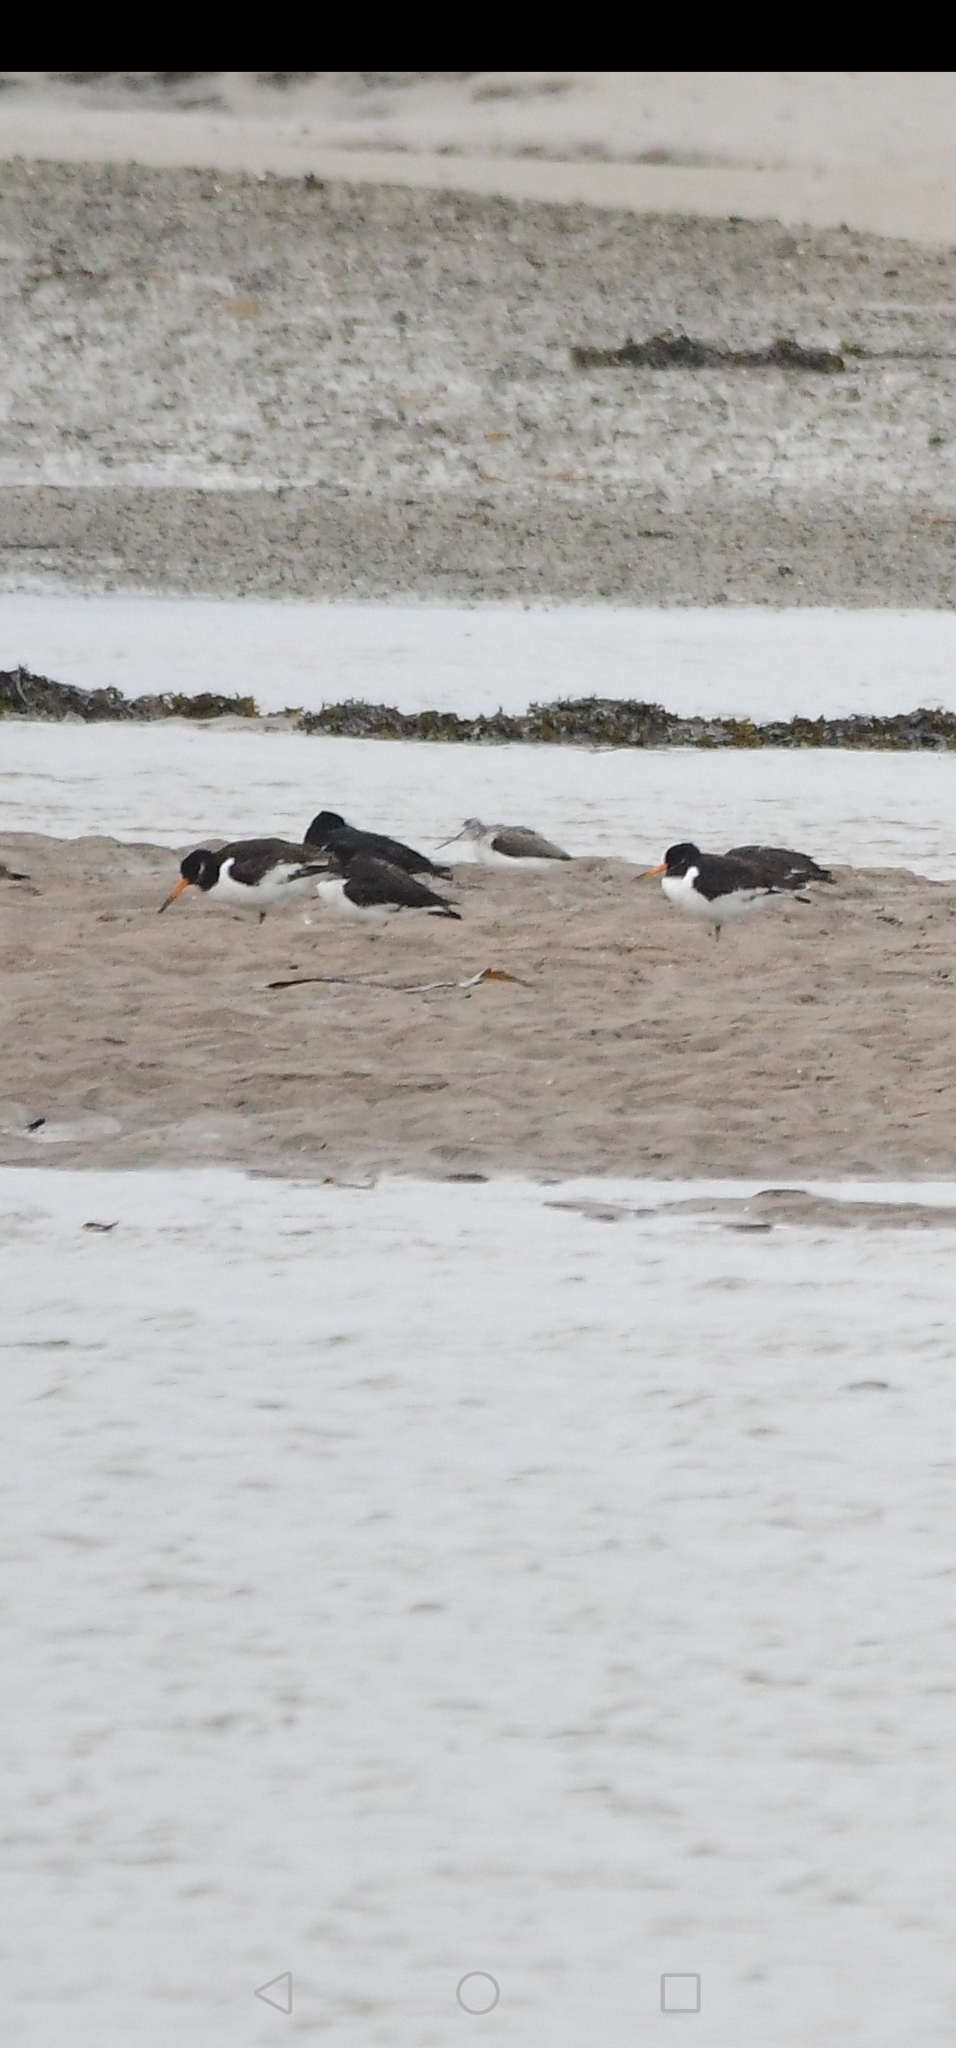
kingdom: Animalia
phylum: Chordata
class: Aves
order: Charadriiformes
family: Scolopacidae
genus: Tringa
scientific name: Tringa nebularia
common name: Common greenshank
